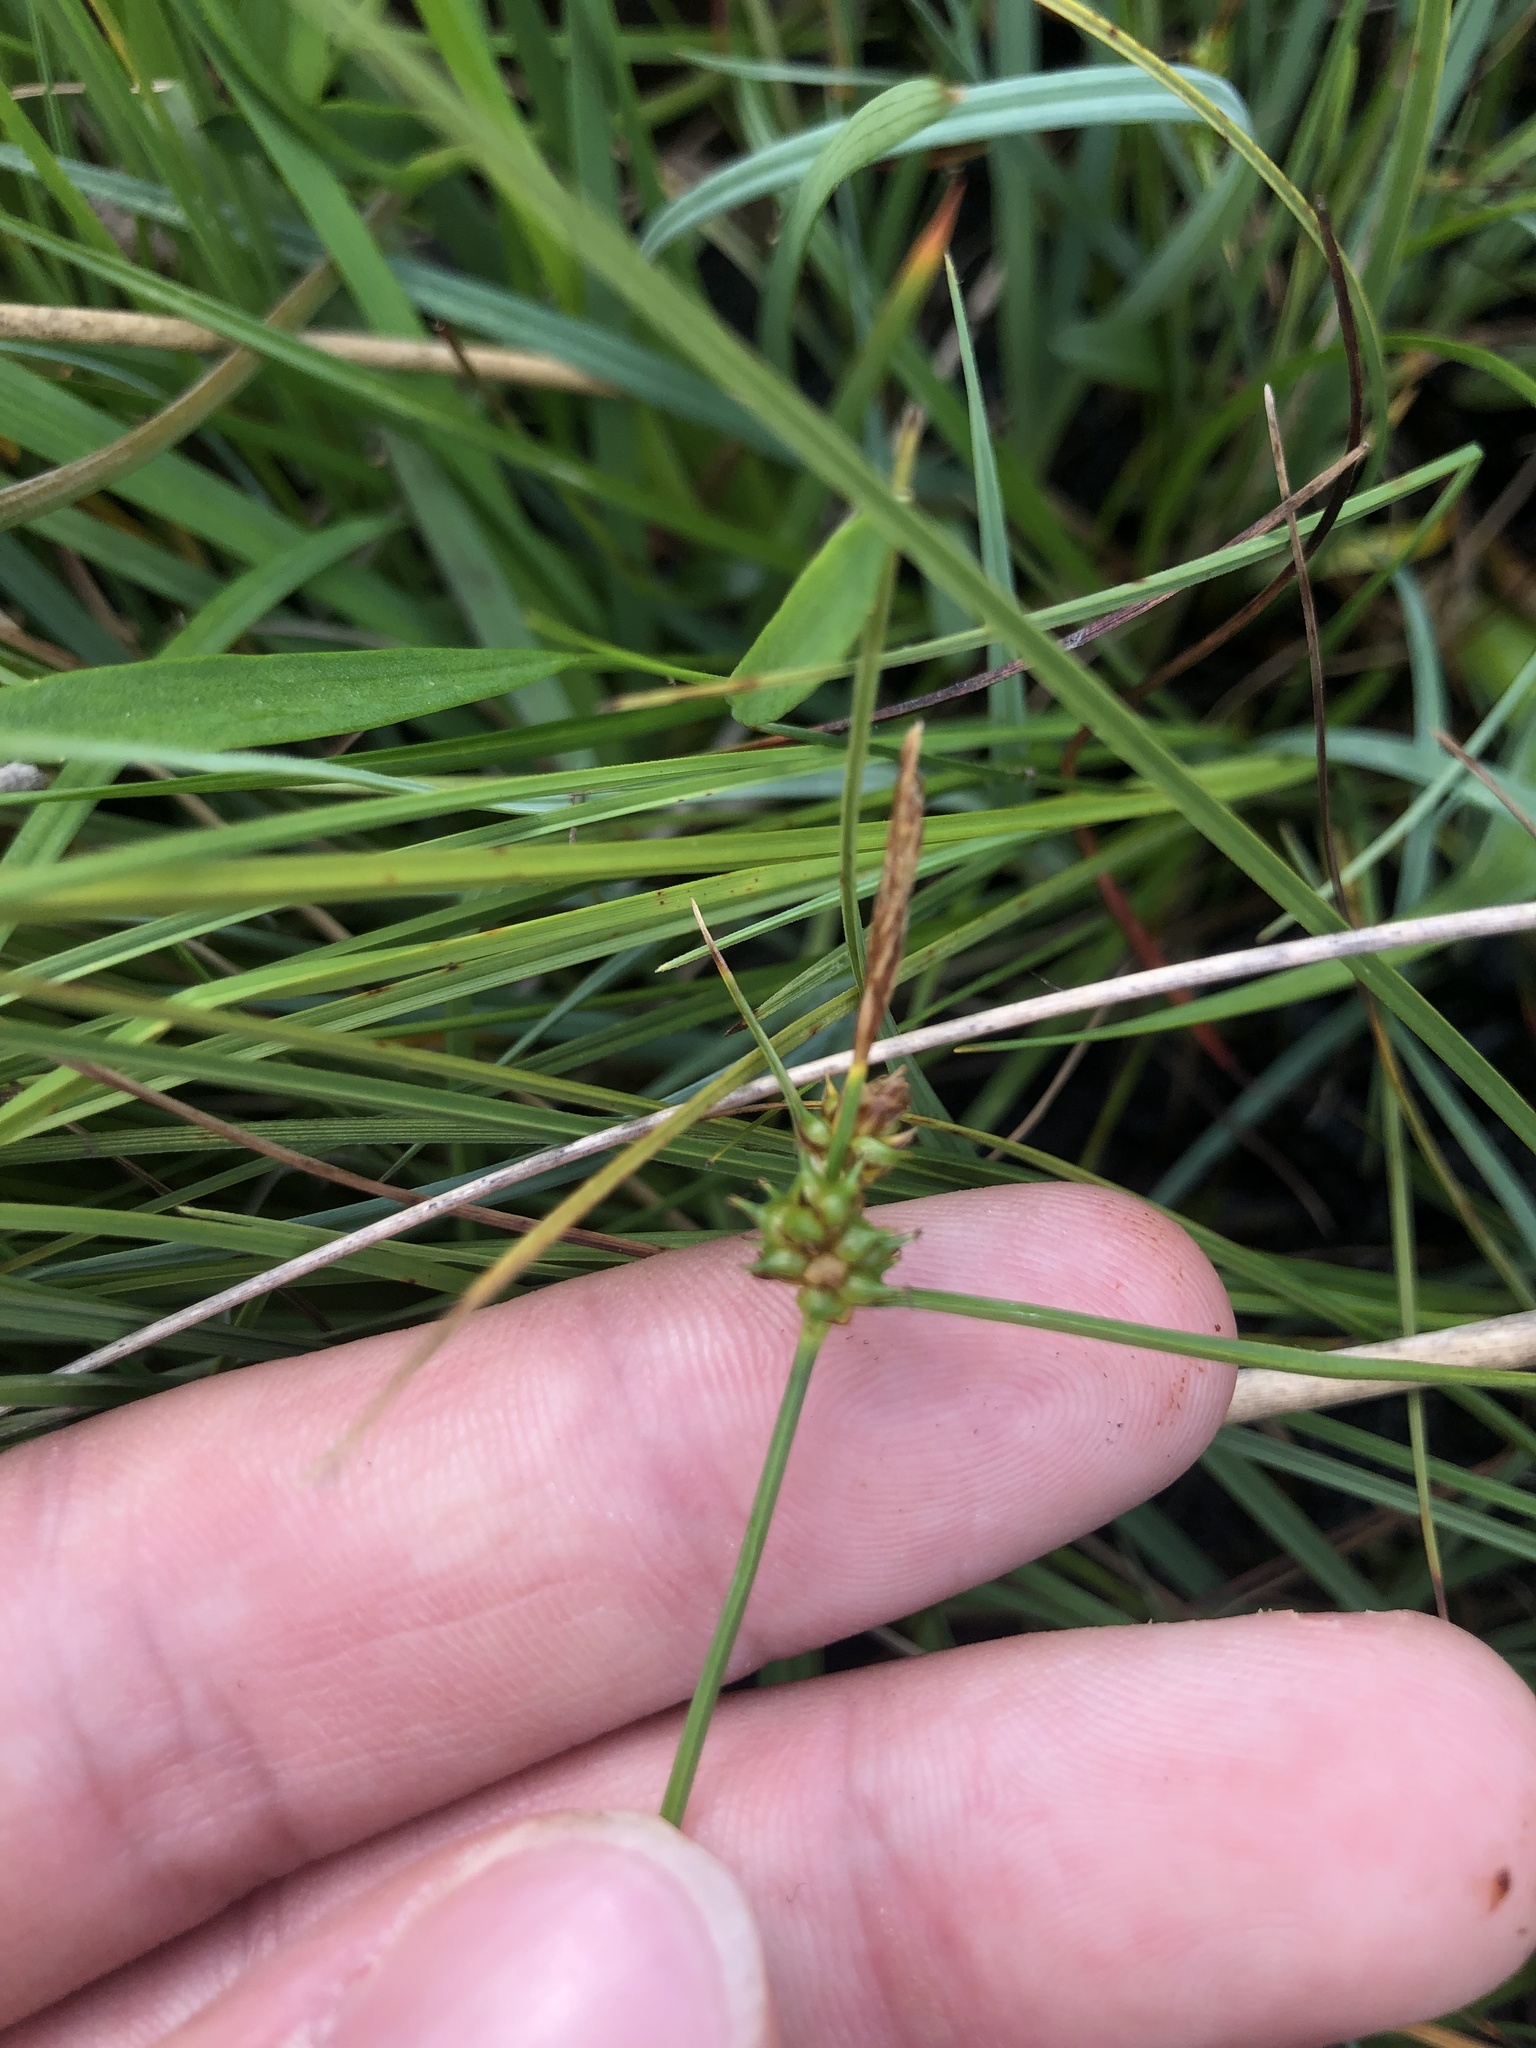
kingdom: Plantae
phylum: Tracheophyta
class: Liliopsida
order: Poales
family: Cyperaceae
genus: Carex
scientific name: Carex demissa
